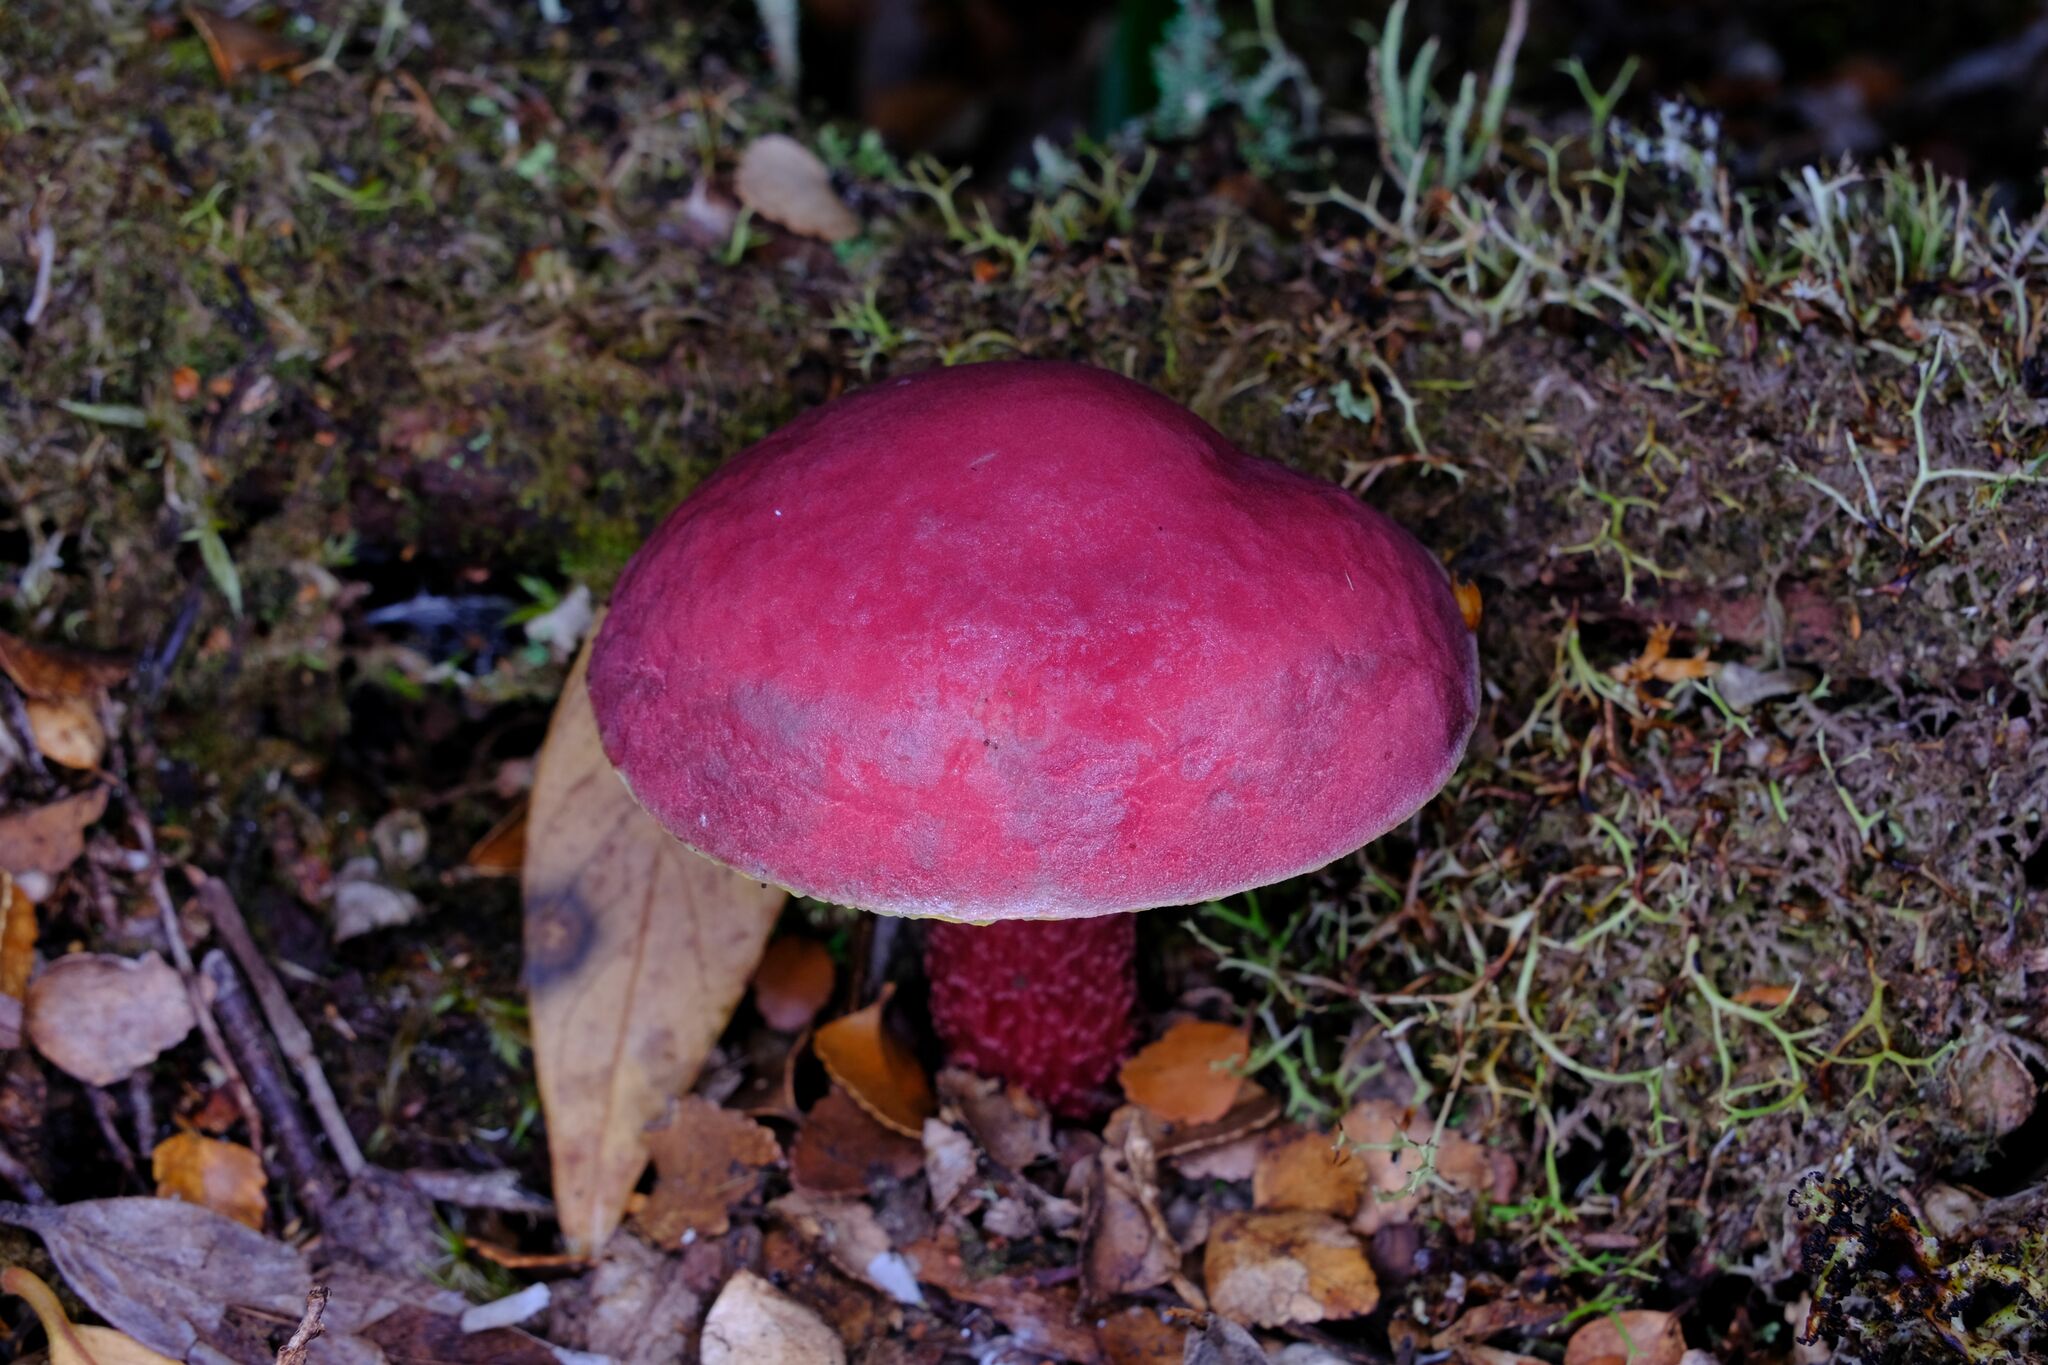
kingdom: Fungi
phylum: Basidiomycota
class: Agaricomycetes
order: Boletales
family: Boletaceae
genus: Boletellus
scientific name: Boletellus obscurecoccineus
